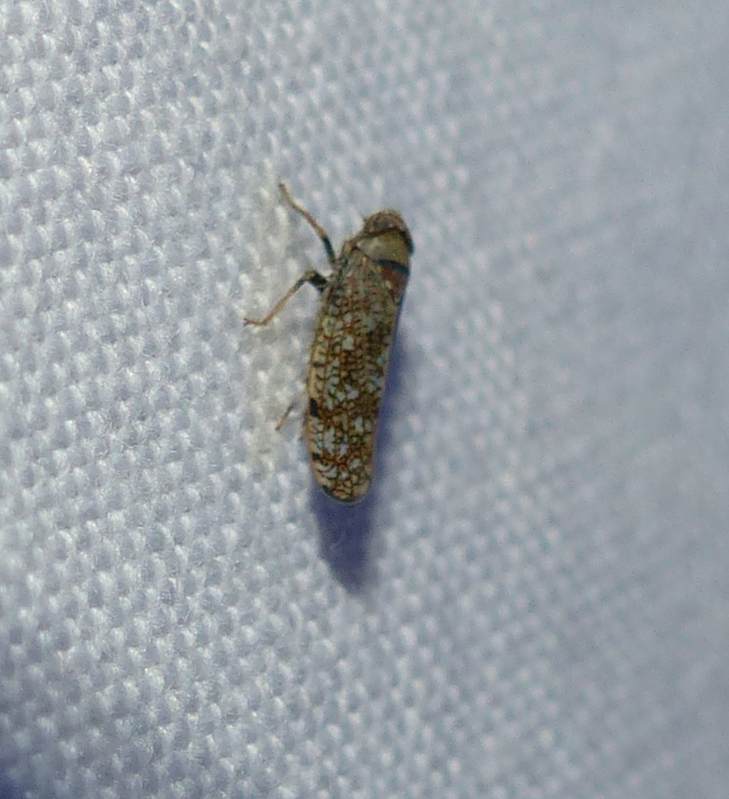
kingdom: Animalia
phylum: Arthropoda
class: Insecta
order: Hemiptera
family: Cicadellidae
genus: Orientus
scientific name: Orientus ishidae
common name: Japanese leafhopper
